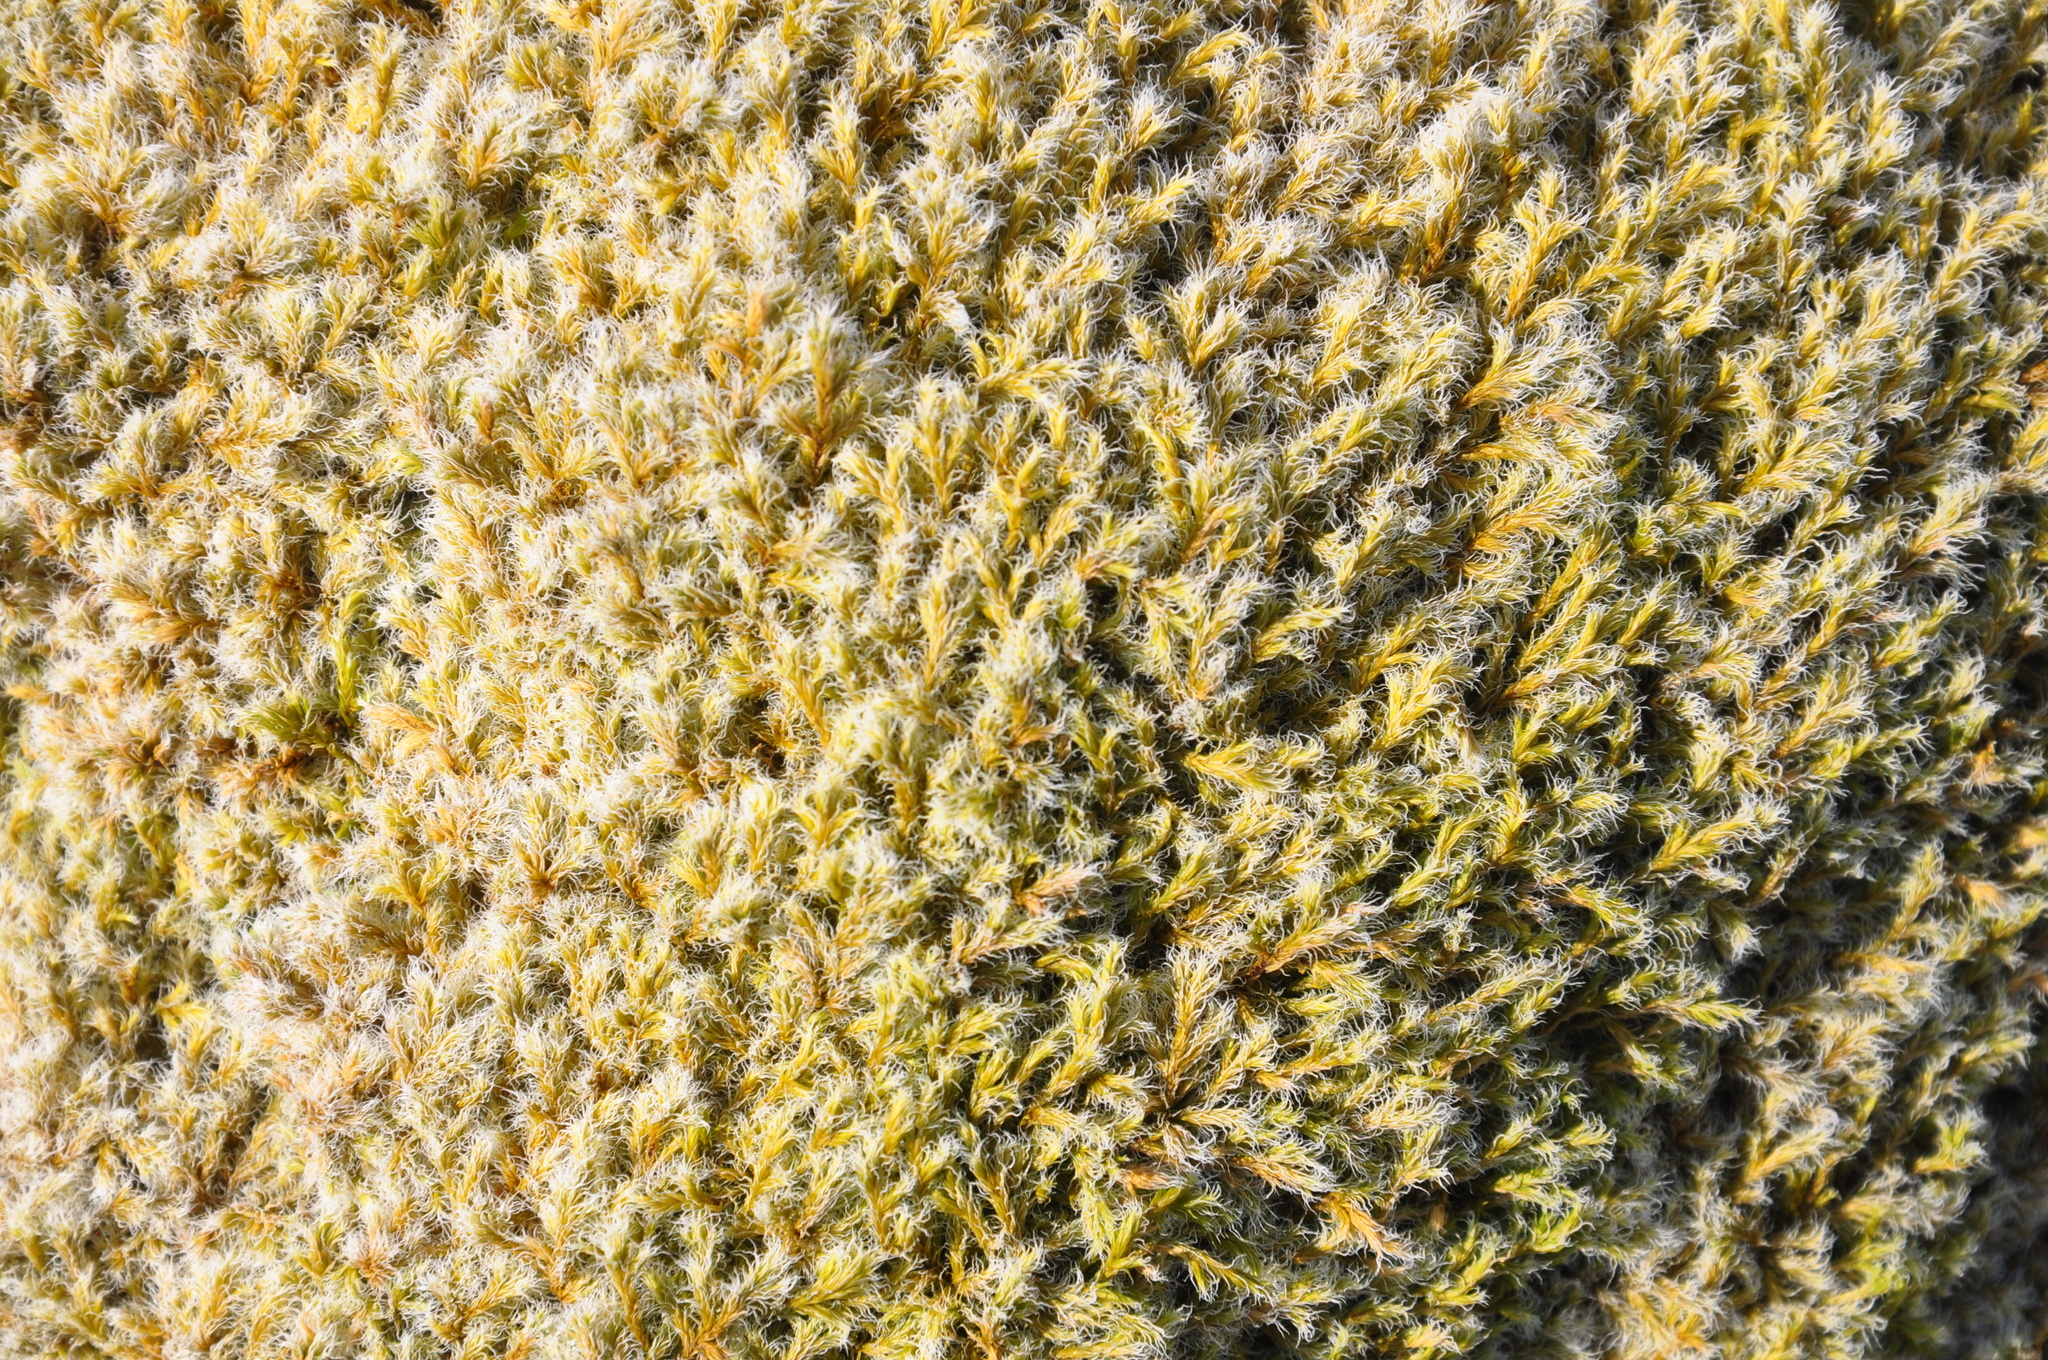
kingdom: Plantae
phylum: Bryophyta
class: Bryopsida
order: Grimmiales
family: Grimmiaceae
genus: Racomitrium
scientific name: Racomitrium lanuginosum
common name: Hoary rock moss
